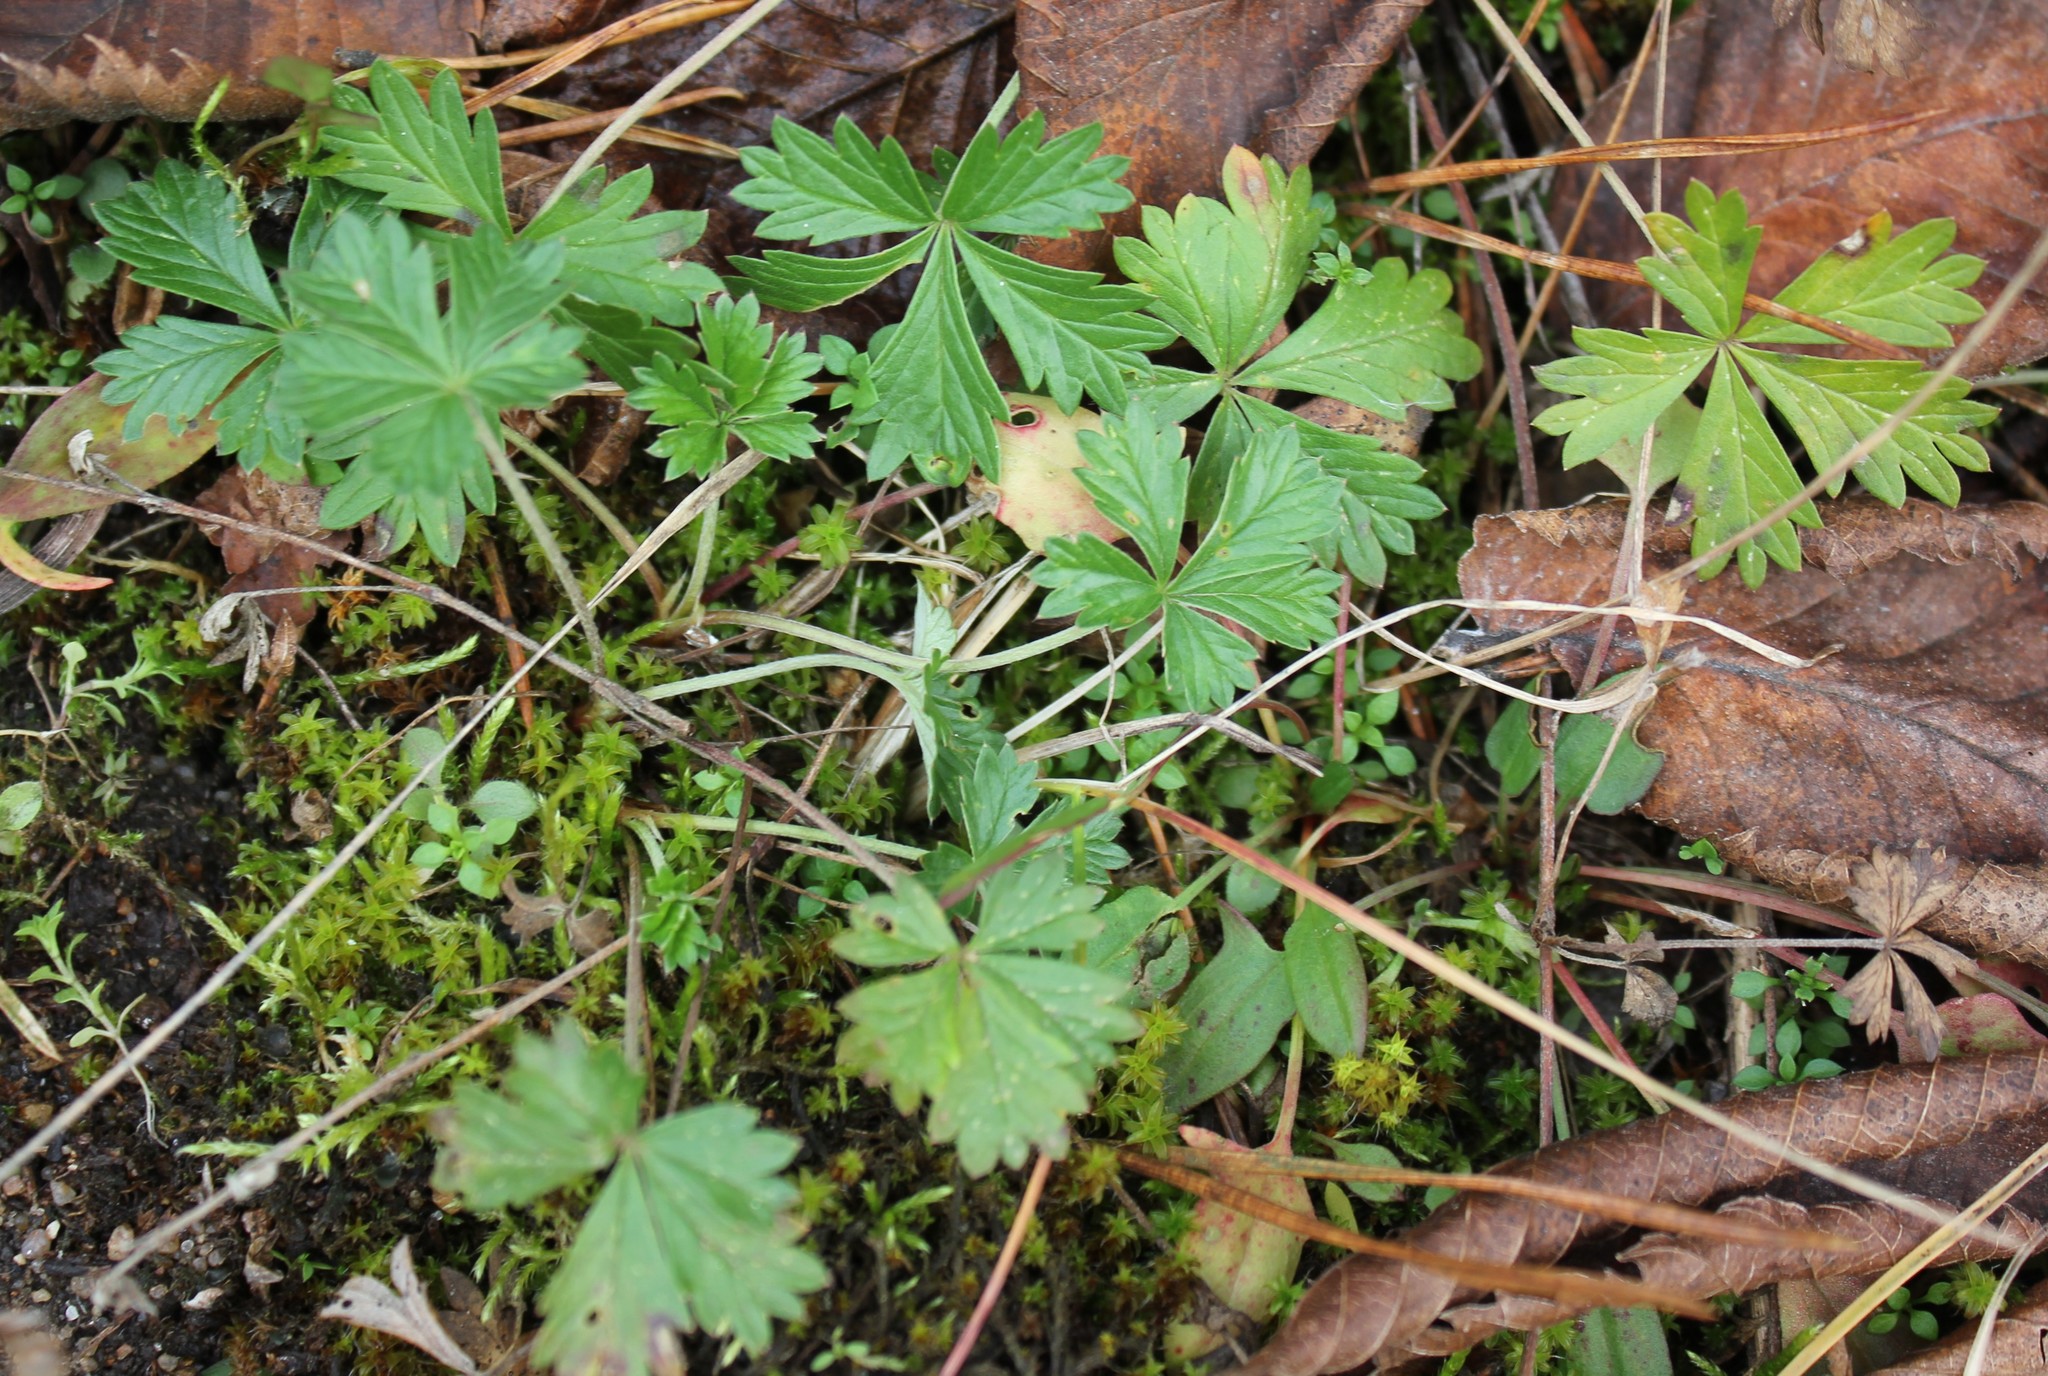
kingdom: Plantae
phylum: Tracheophyta
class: Magnoliopsida
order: Rosales
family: Rosaceae
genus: Potentilla
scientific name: Potentilla argentea
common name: Hoary cinquefoil
